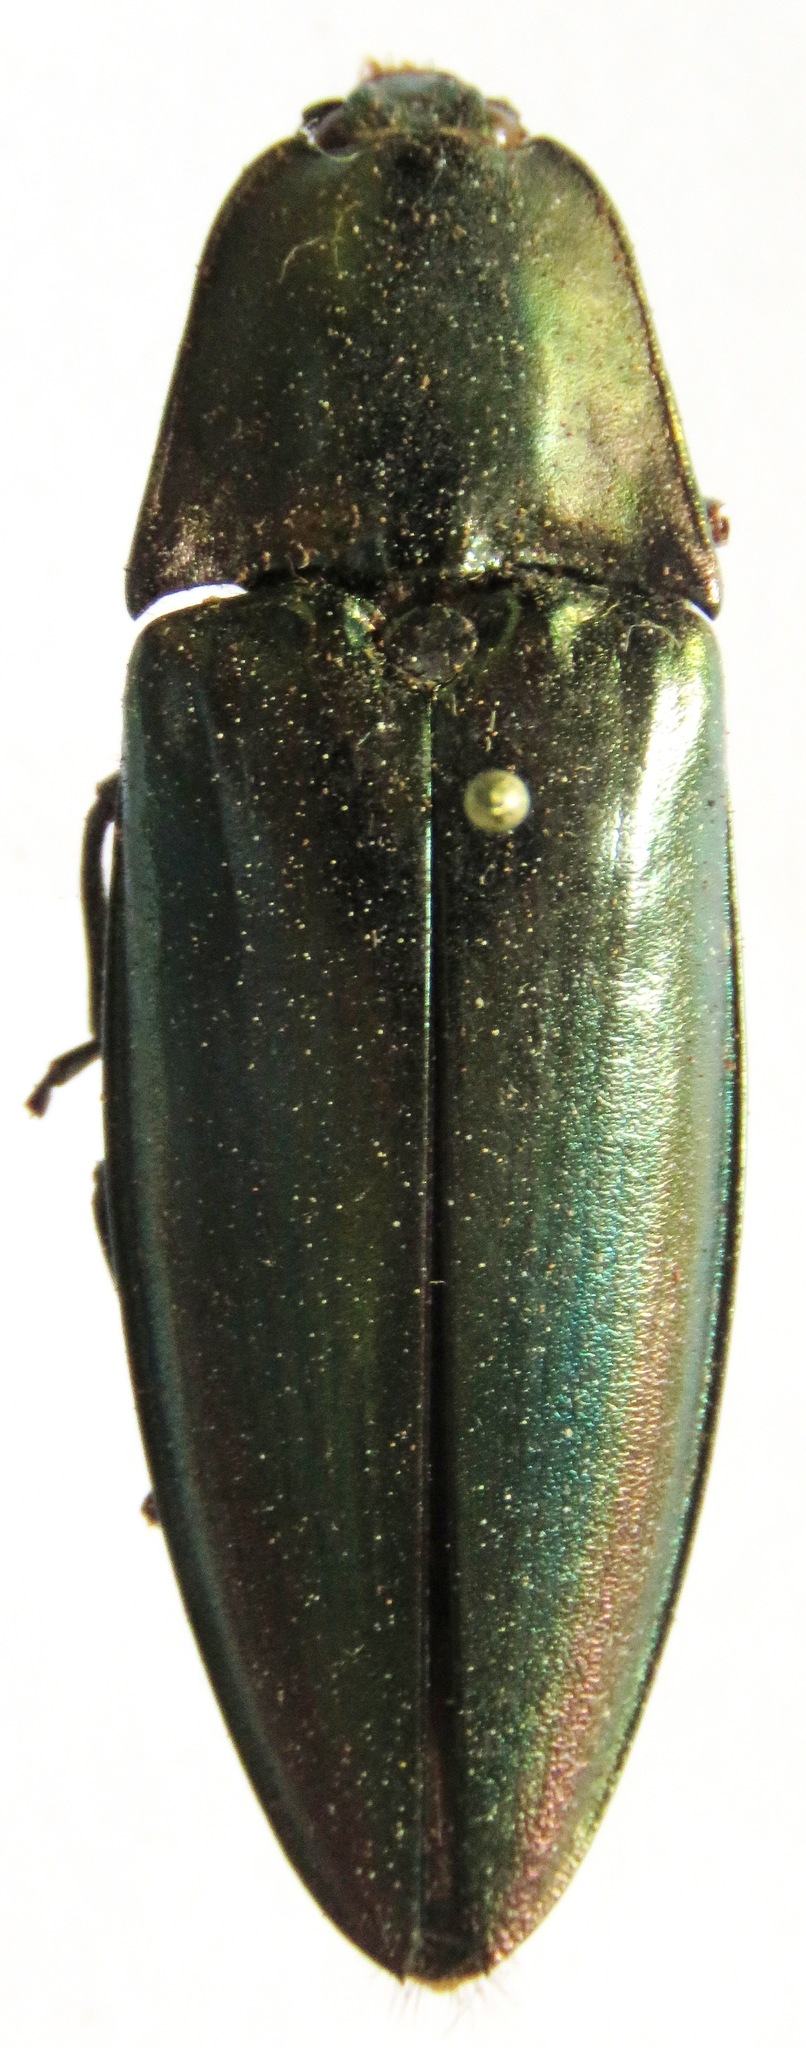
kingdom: Animalia
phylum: Arthropoda
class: Insecta
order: Coleoptera
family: Elateridae
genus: Campsosternus
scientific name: Campsosternus auratus
